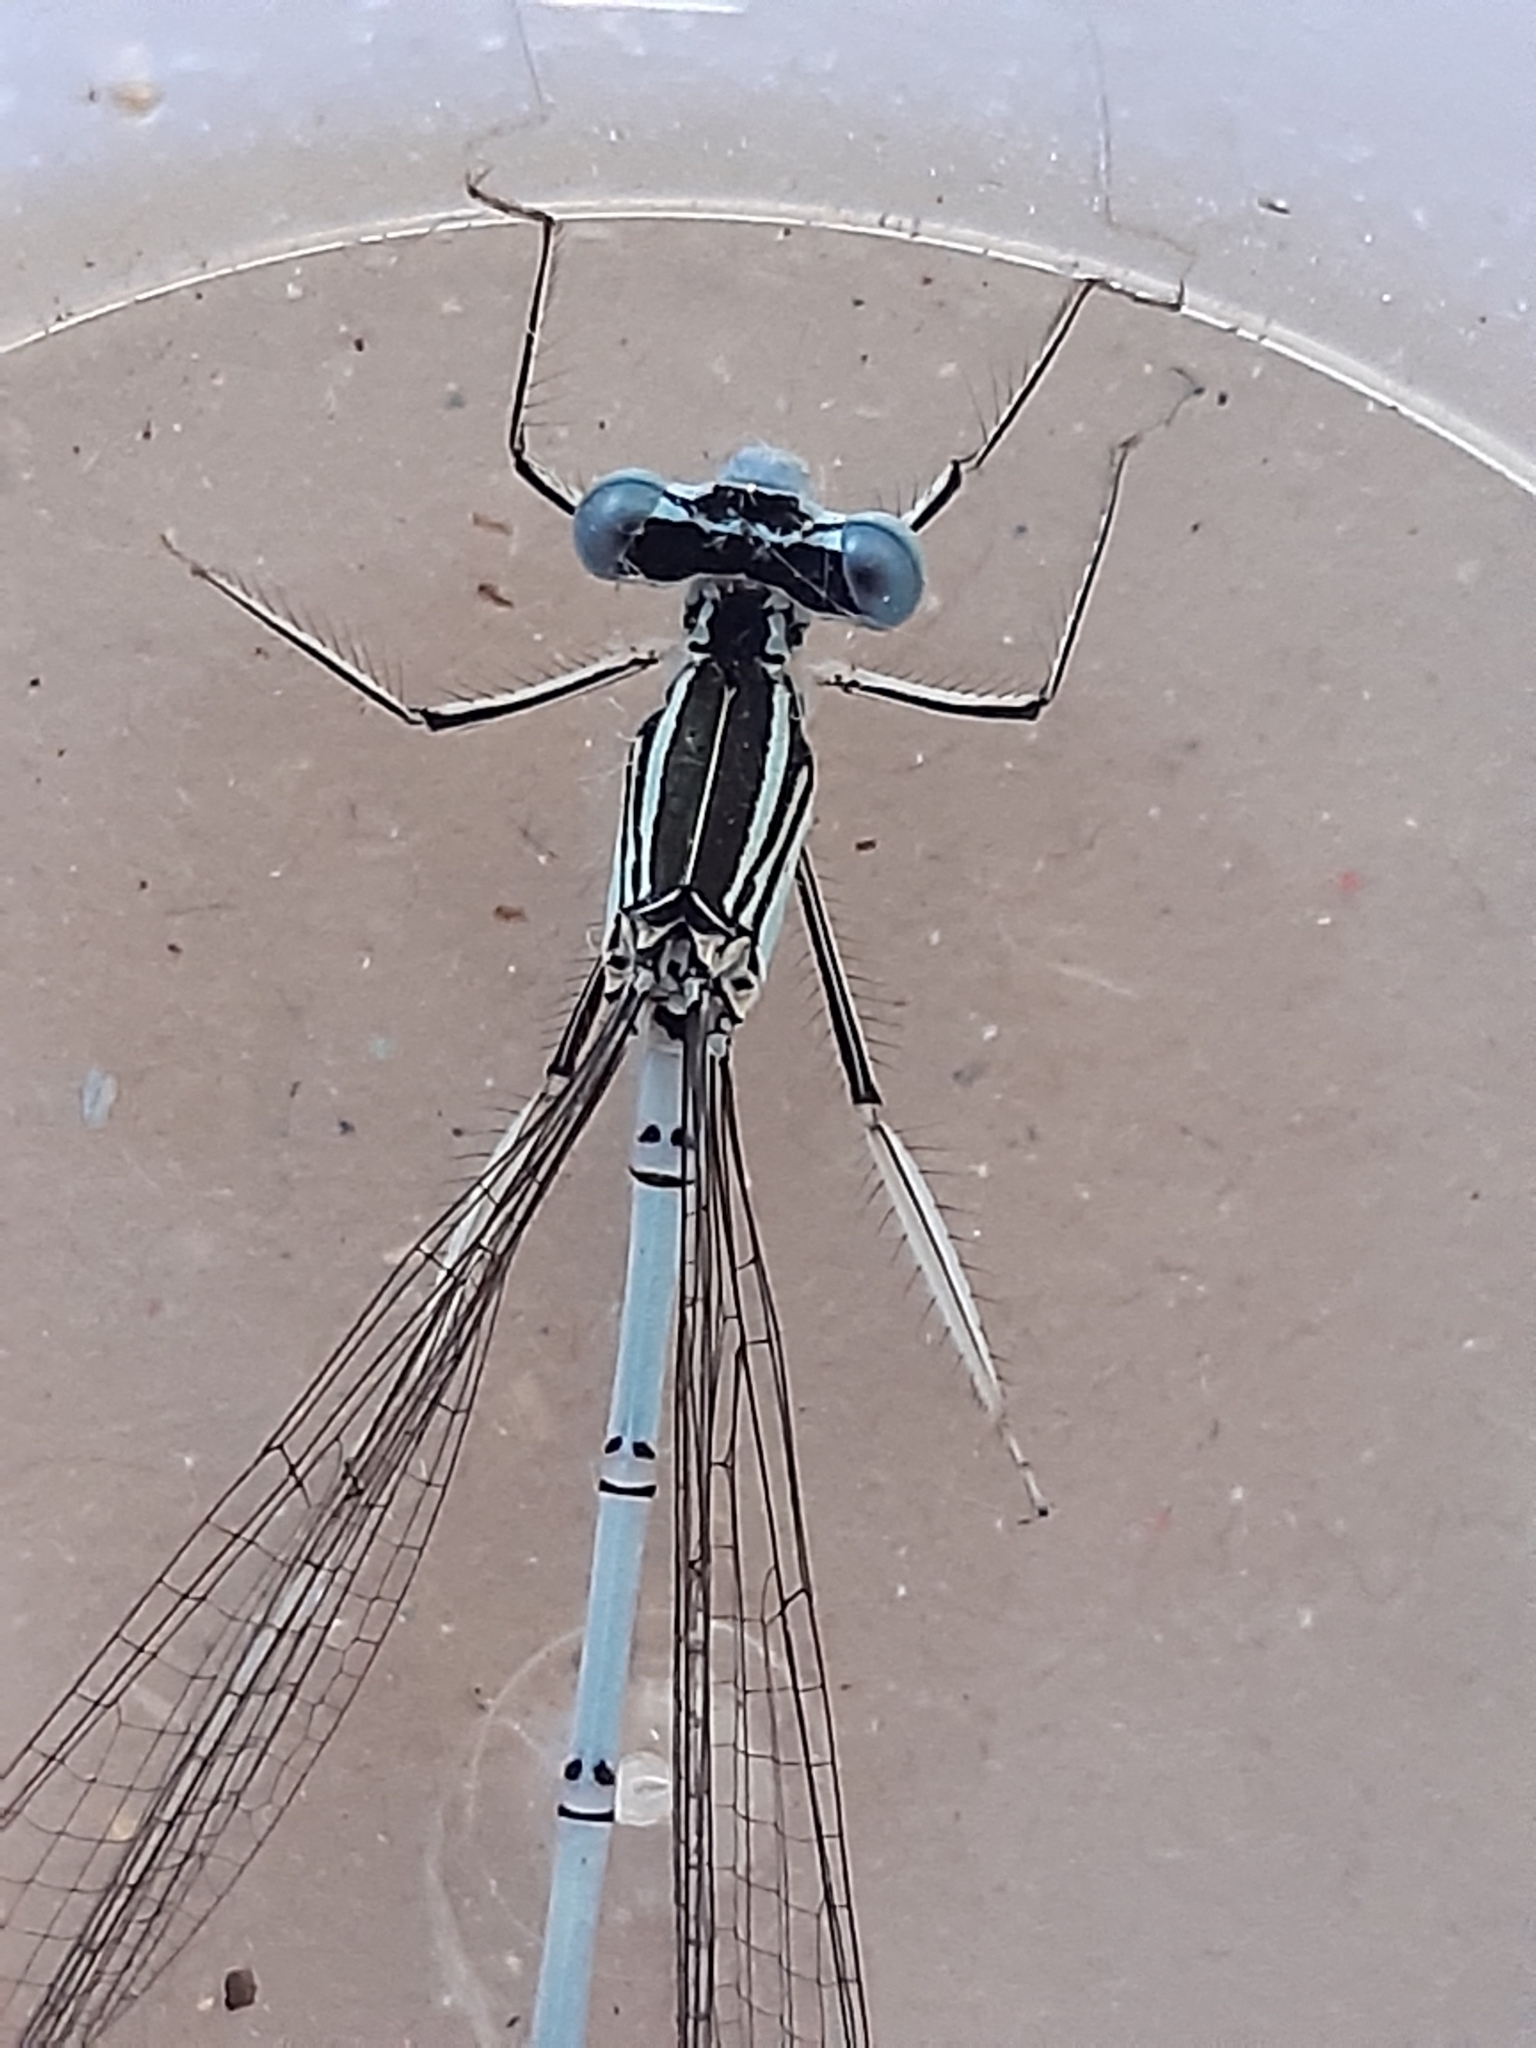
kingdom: Animalia
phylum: Arthropoda
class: Insecta
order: Odonata
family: Platycnemididae
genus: Platycnemis
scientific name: Platycnemis pennipes
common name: White-legged damselfly
